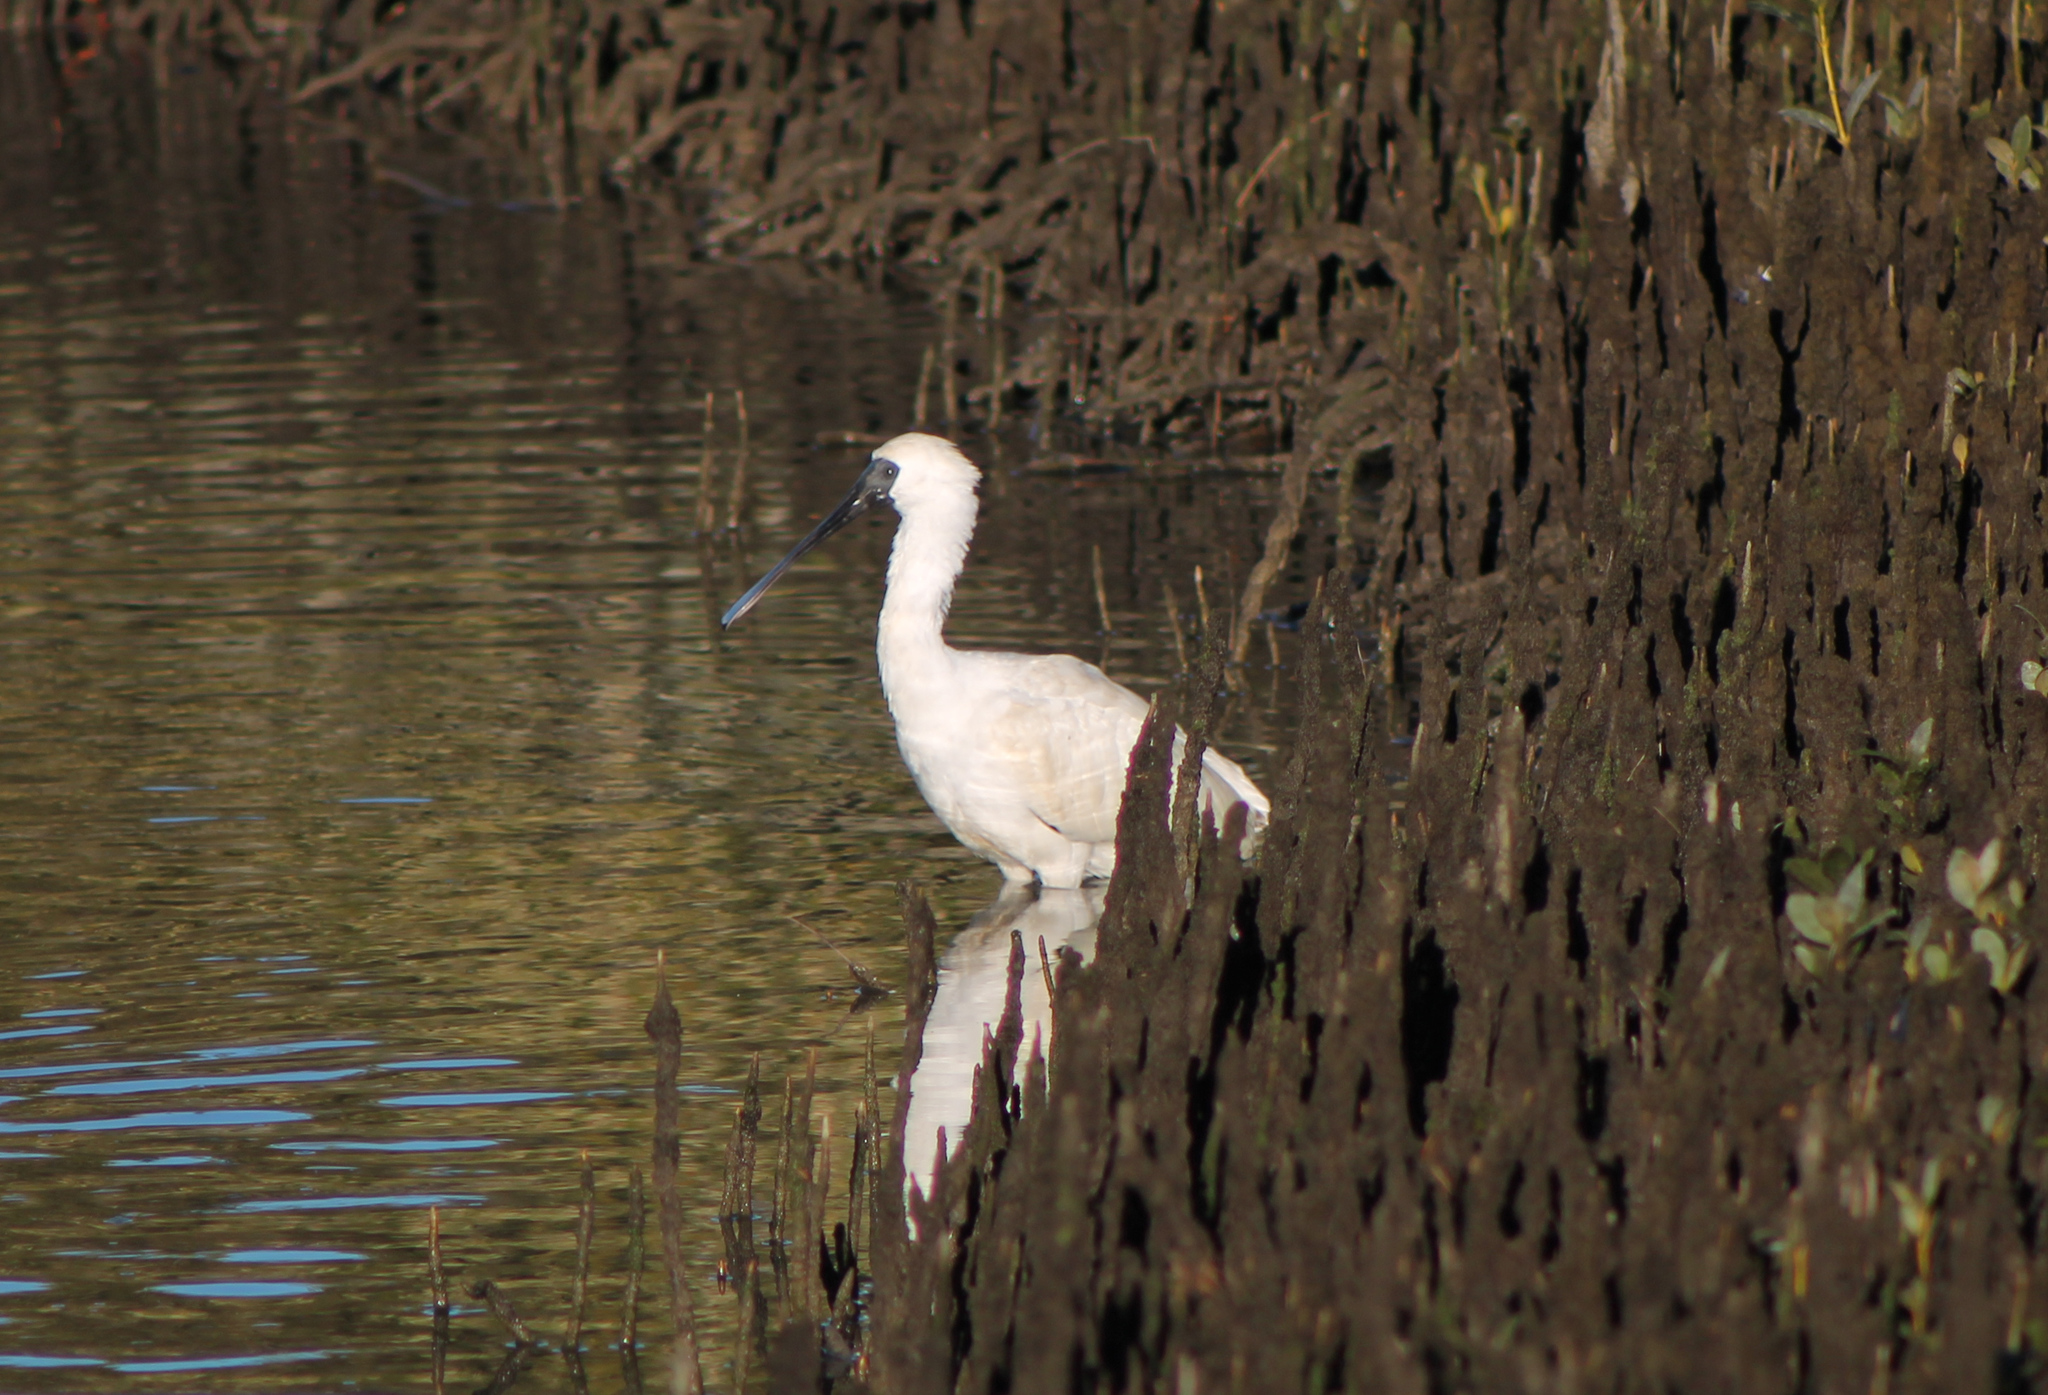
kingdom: Animalia
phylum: Chordata
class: Aves
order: Pelecaniformes
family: Threskiornithidae
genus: Platalea
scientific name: Platalea regia
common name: Royal spoonbill
